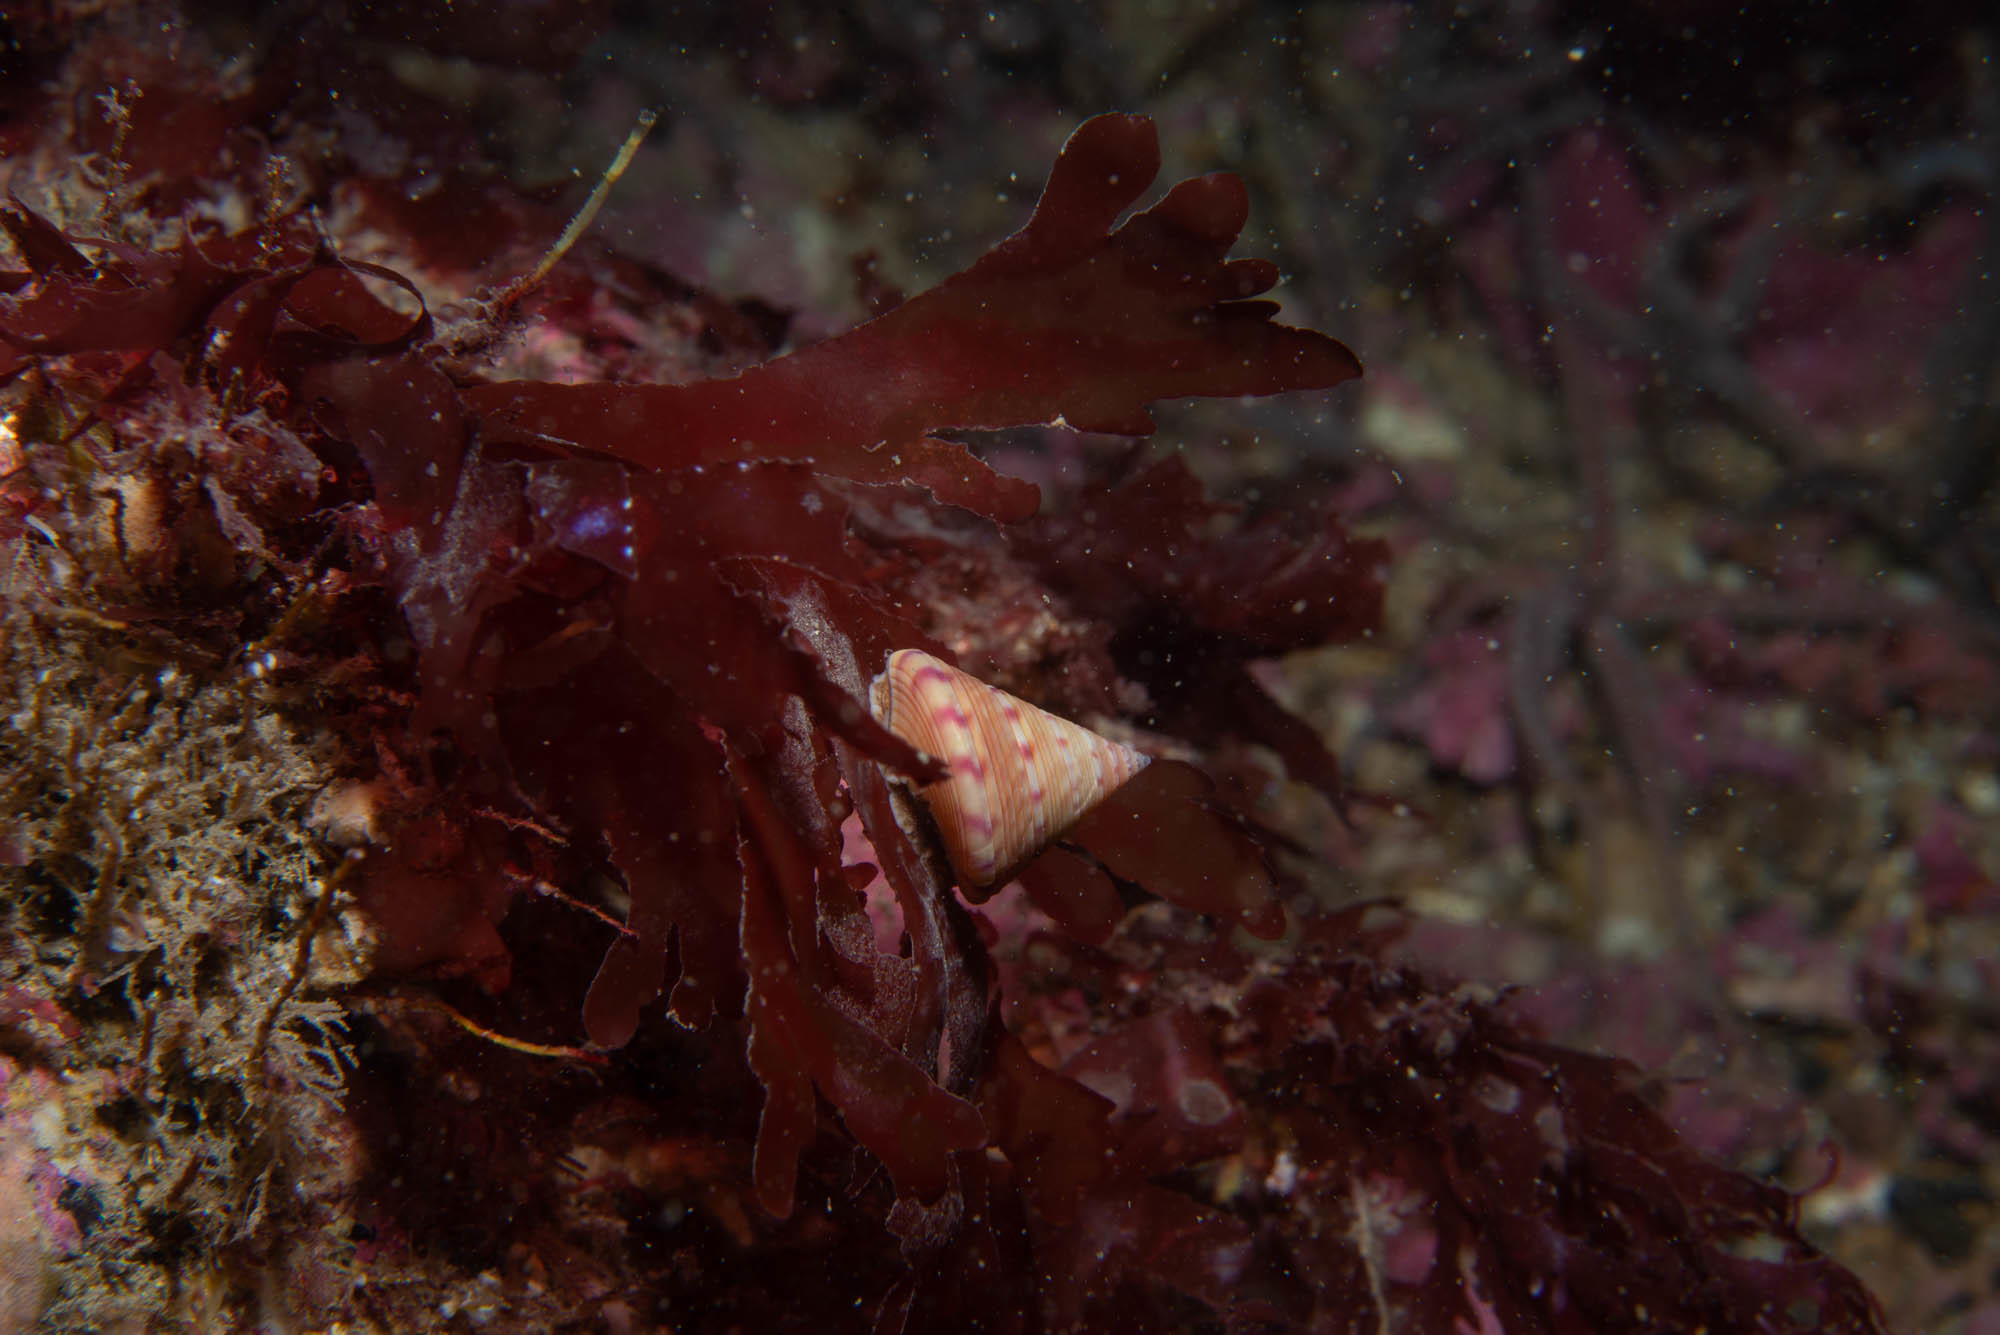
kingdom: Animalia
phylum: Mollusca
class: Gastropoda
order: Trochida
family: Calliostomatidae
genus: Calliostoma
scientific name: Calliostoma zizyphinum
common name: Painted top shell
